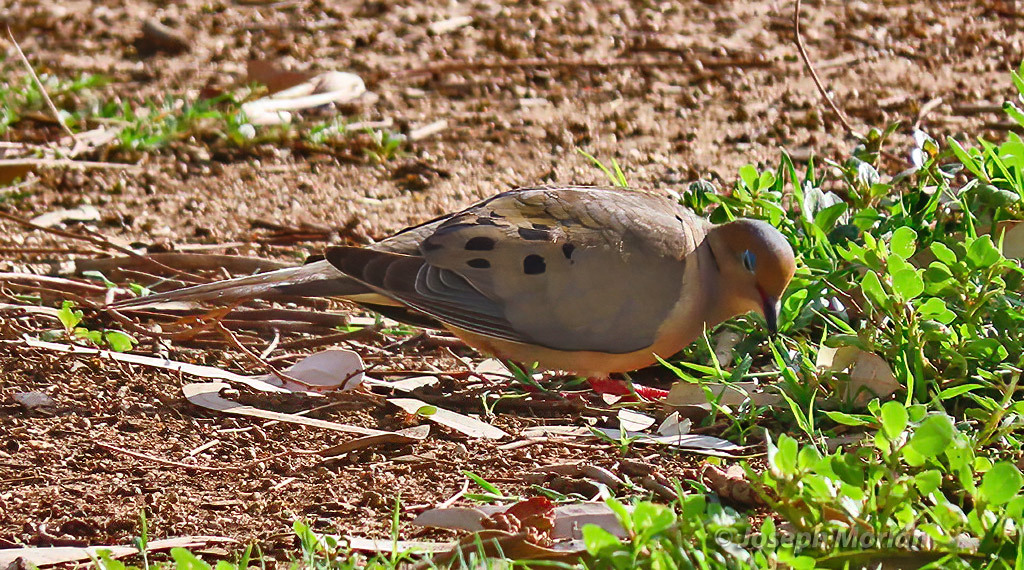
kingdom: Animalia
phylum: Chordata
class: Aves
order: Columbiformes
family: Columbidae
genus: Zenaida
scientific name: Zenaida macroura
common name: Mourning dove
